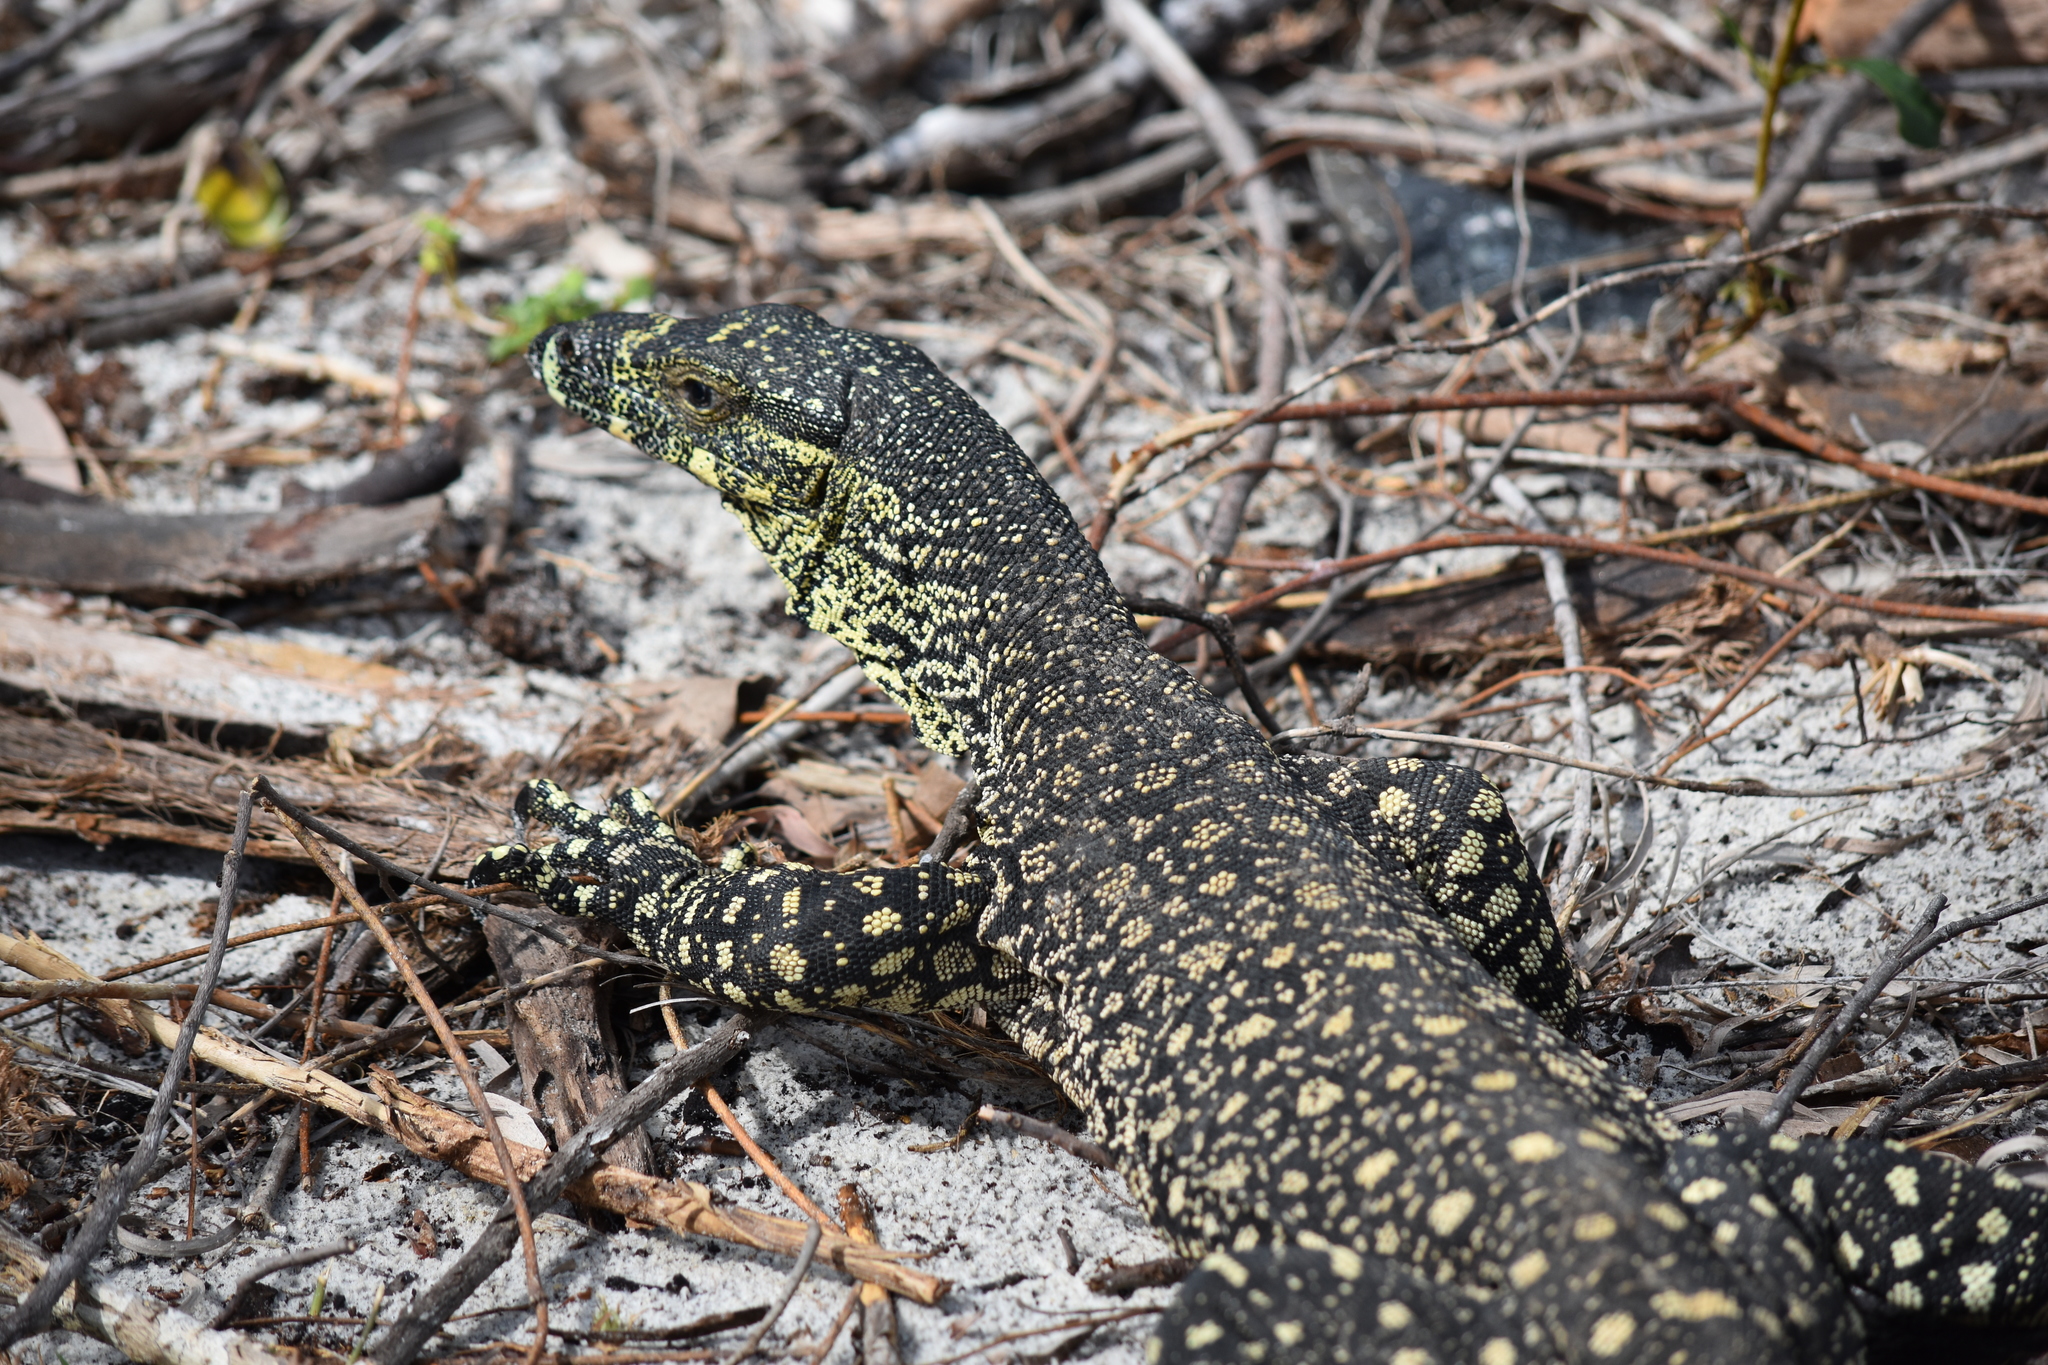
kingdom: Animalia
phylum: Chordata
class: Squamata
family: Varanidae
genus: Varanus
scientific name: Varanus varius
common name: Lace monitor
